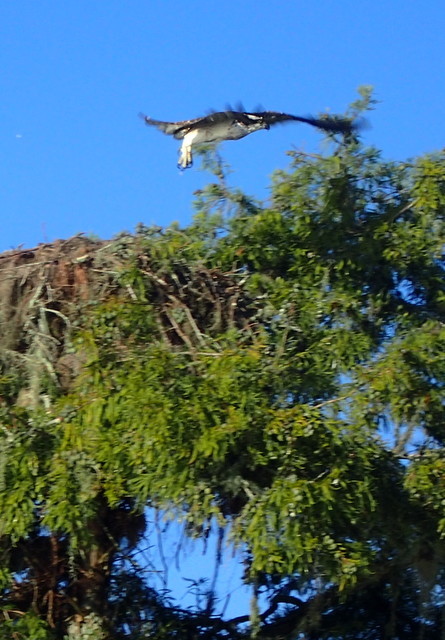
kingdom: Animalia
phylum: Chordata
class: Aves
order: Accipitriformes
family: Pandionidae
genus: Pandion
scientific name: Pandion haliaetus
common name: Osprey
